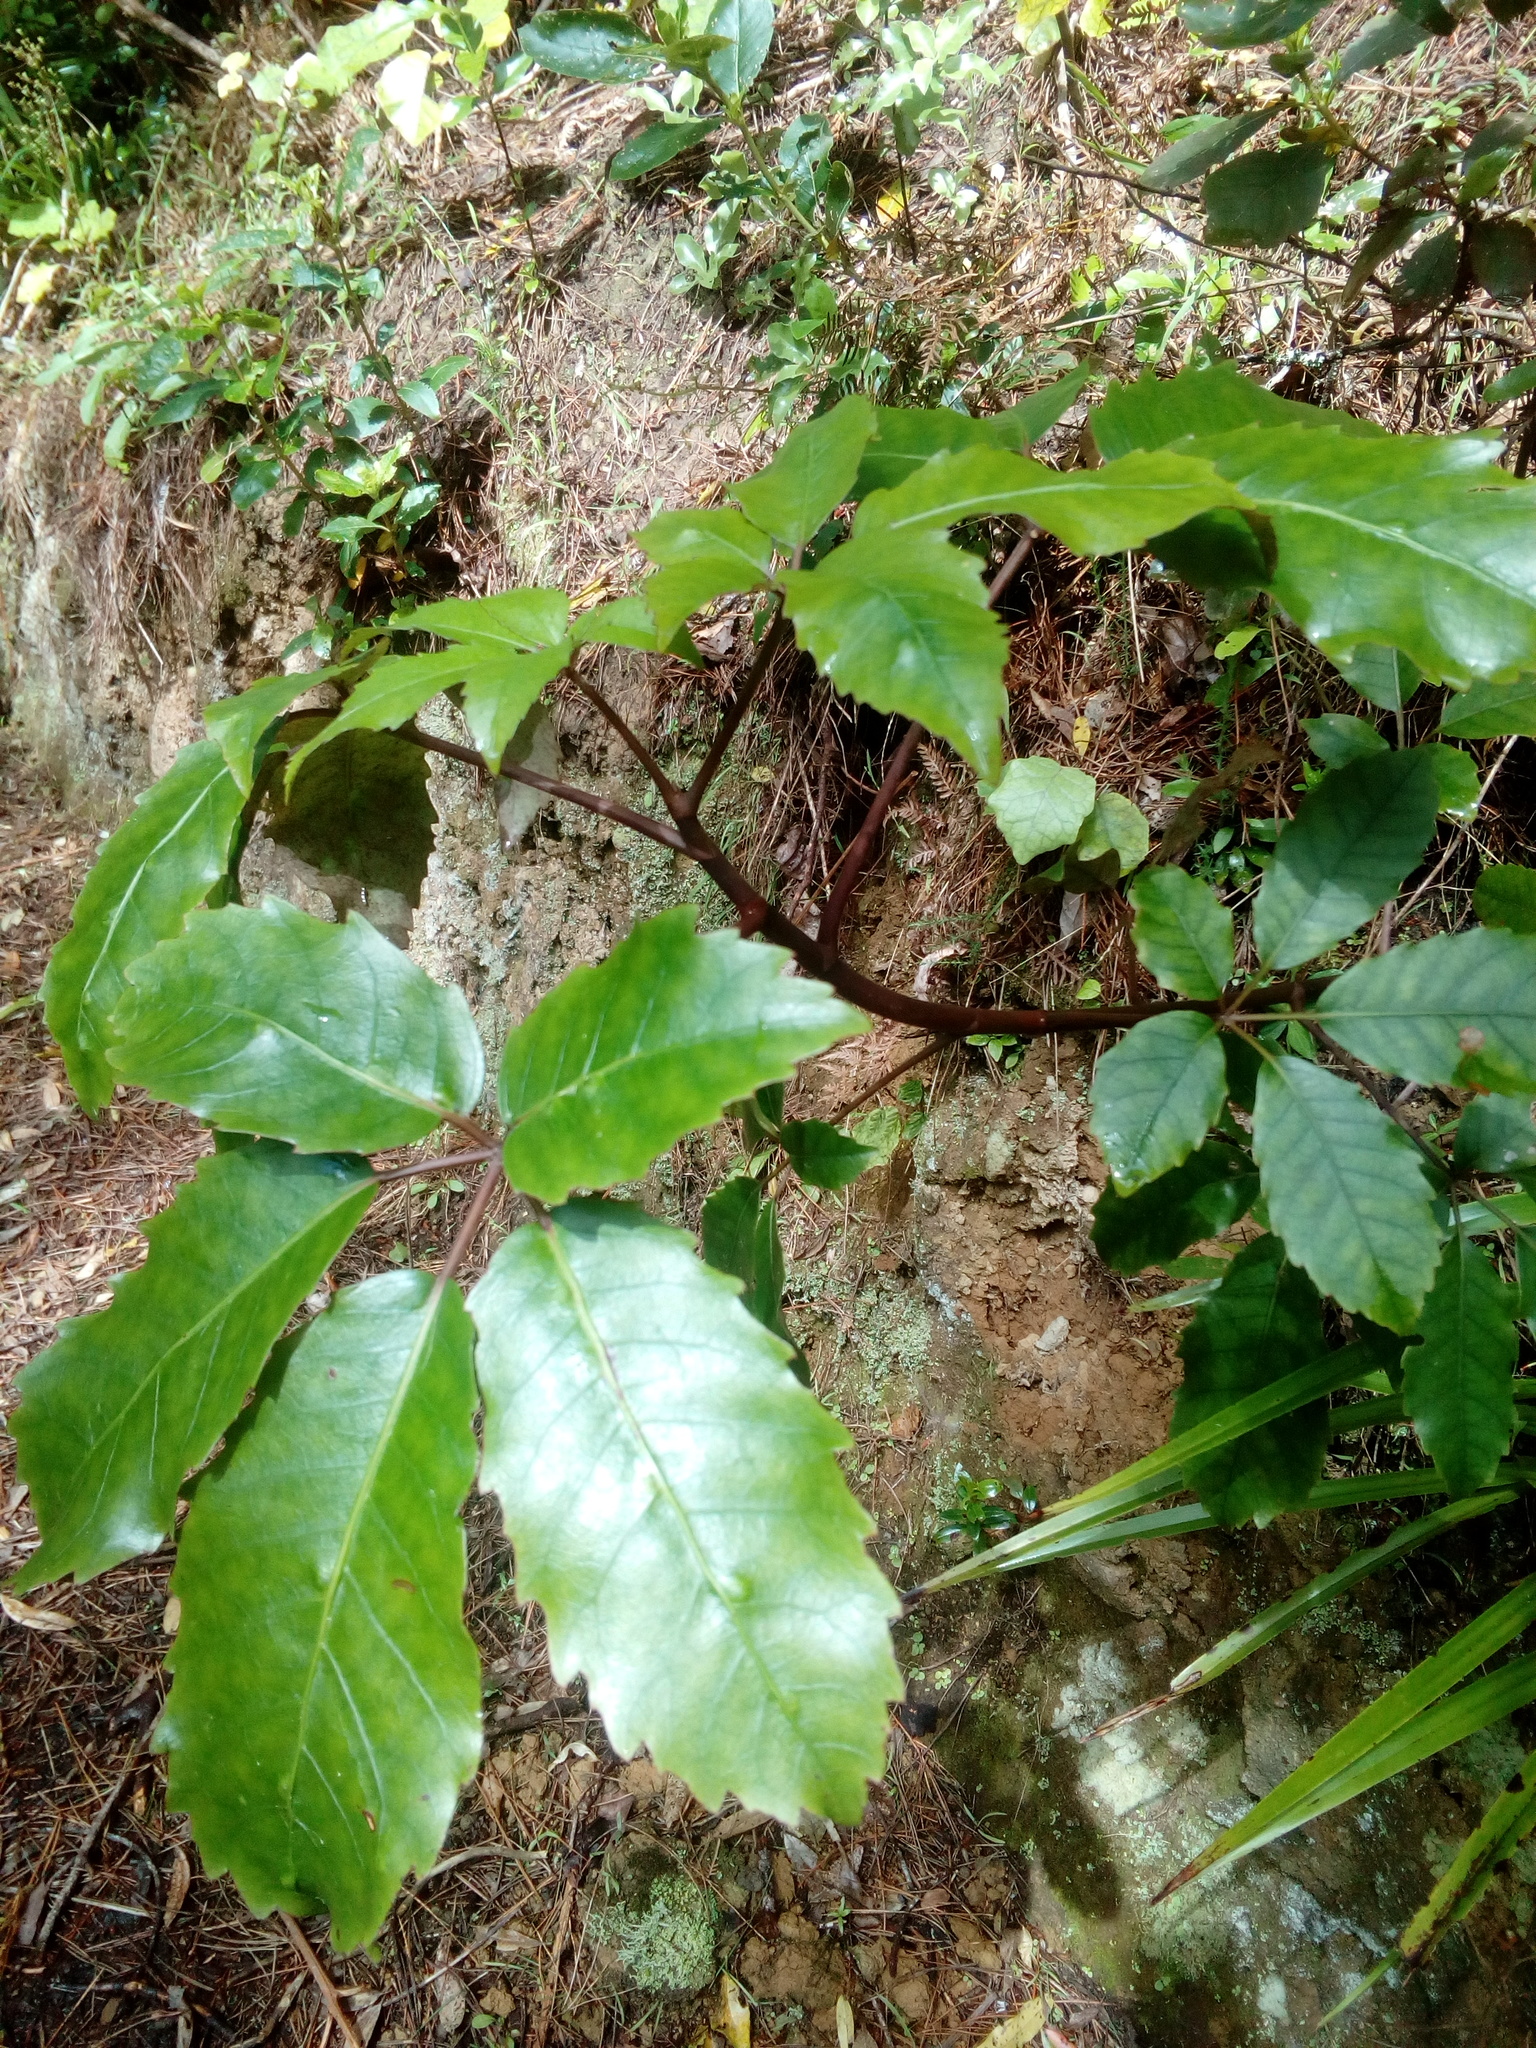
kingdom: Plantae
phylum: Tracheophyta
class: Magnoliopsida
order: Apiales
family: Araliaceae
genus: Neopanax
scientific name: Neopanax arboreus
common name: Five-fingers
